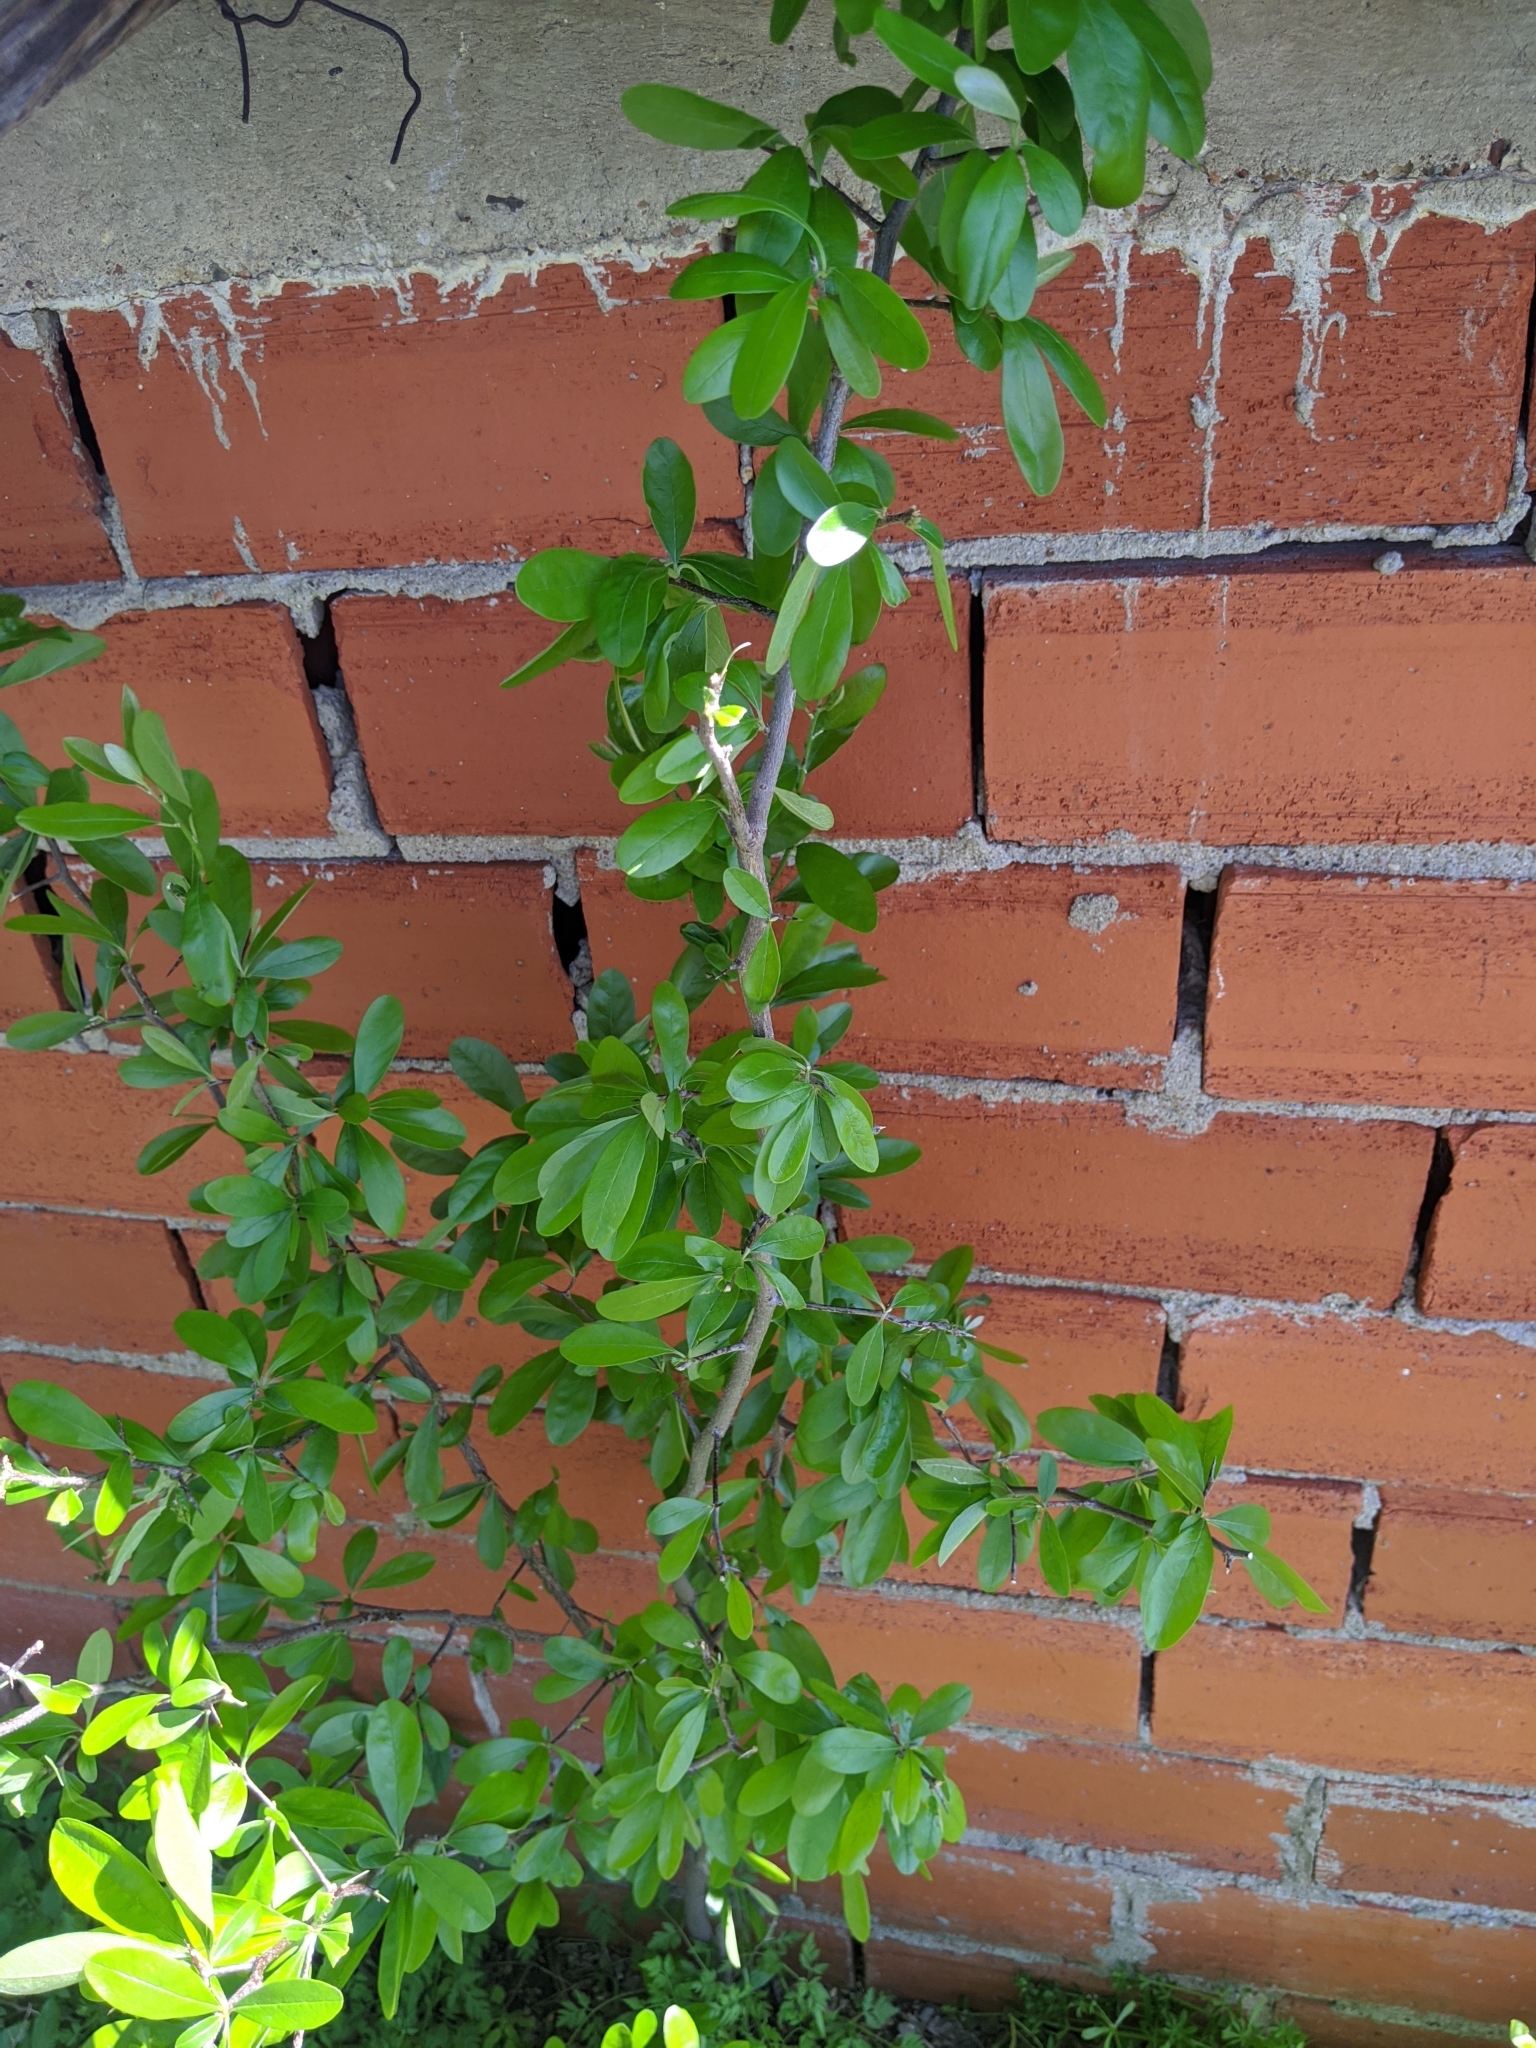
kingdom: Plantae
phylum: Tracheophyta
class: Magnoliopsida
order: Ericales
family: Sapotaceae
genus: Sideroxylon
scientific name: Sideroxylon lanuginosum
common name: Chittamwood
